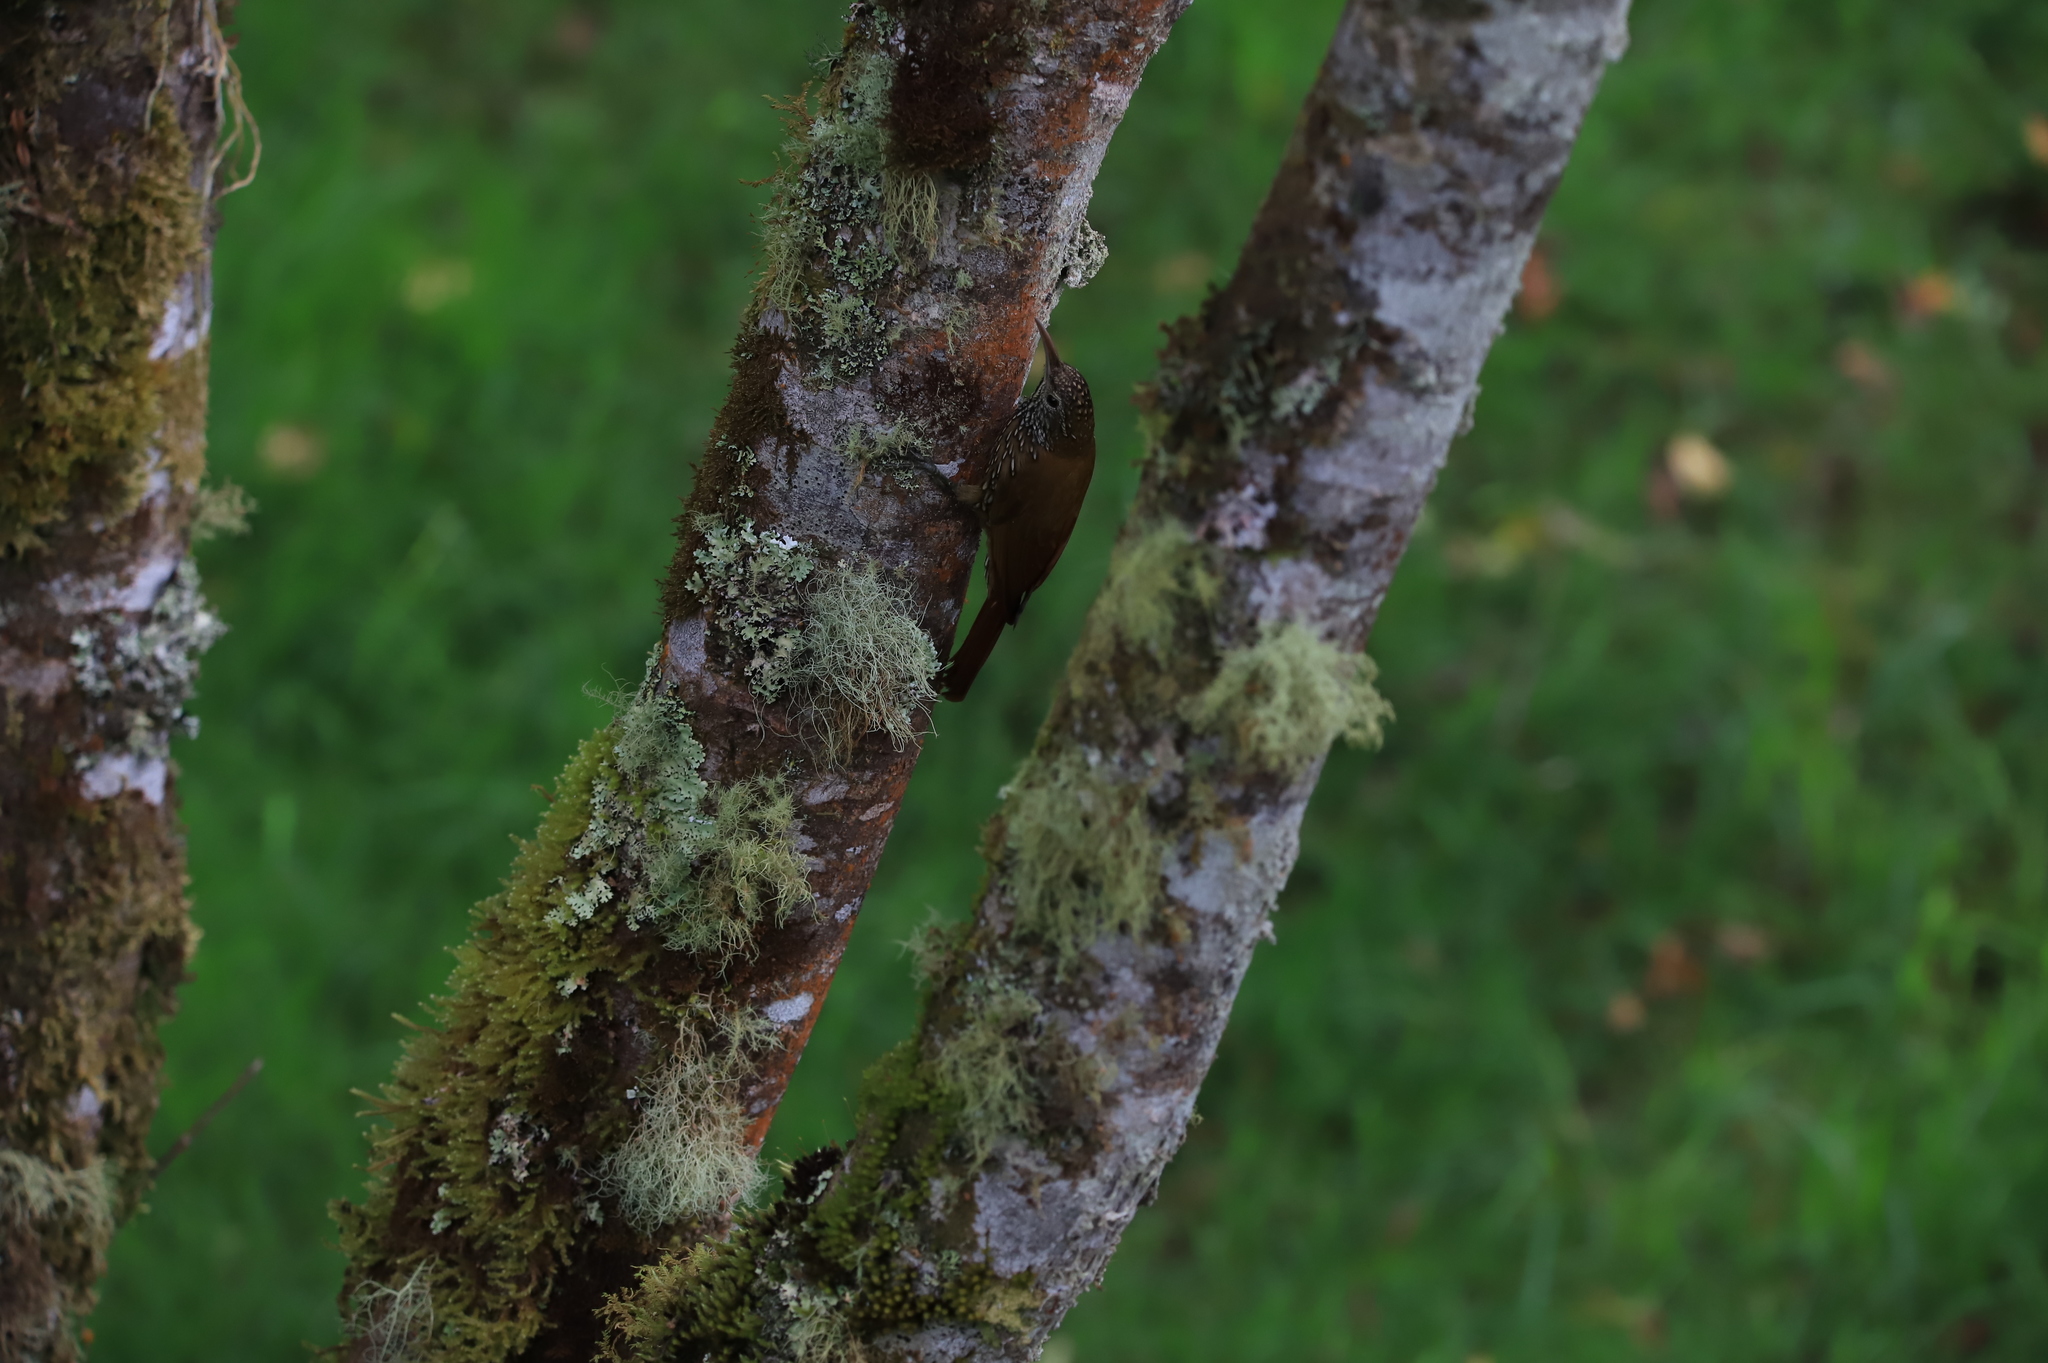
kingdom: Animalia
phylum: Chordata
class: Aves
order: Passeriformes
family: Furnariidae
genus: Lepidocolaptes
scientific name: Lepidocolaptes lacrymiger
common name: Montane woodcreeper
